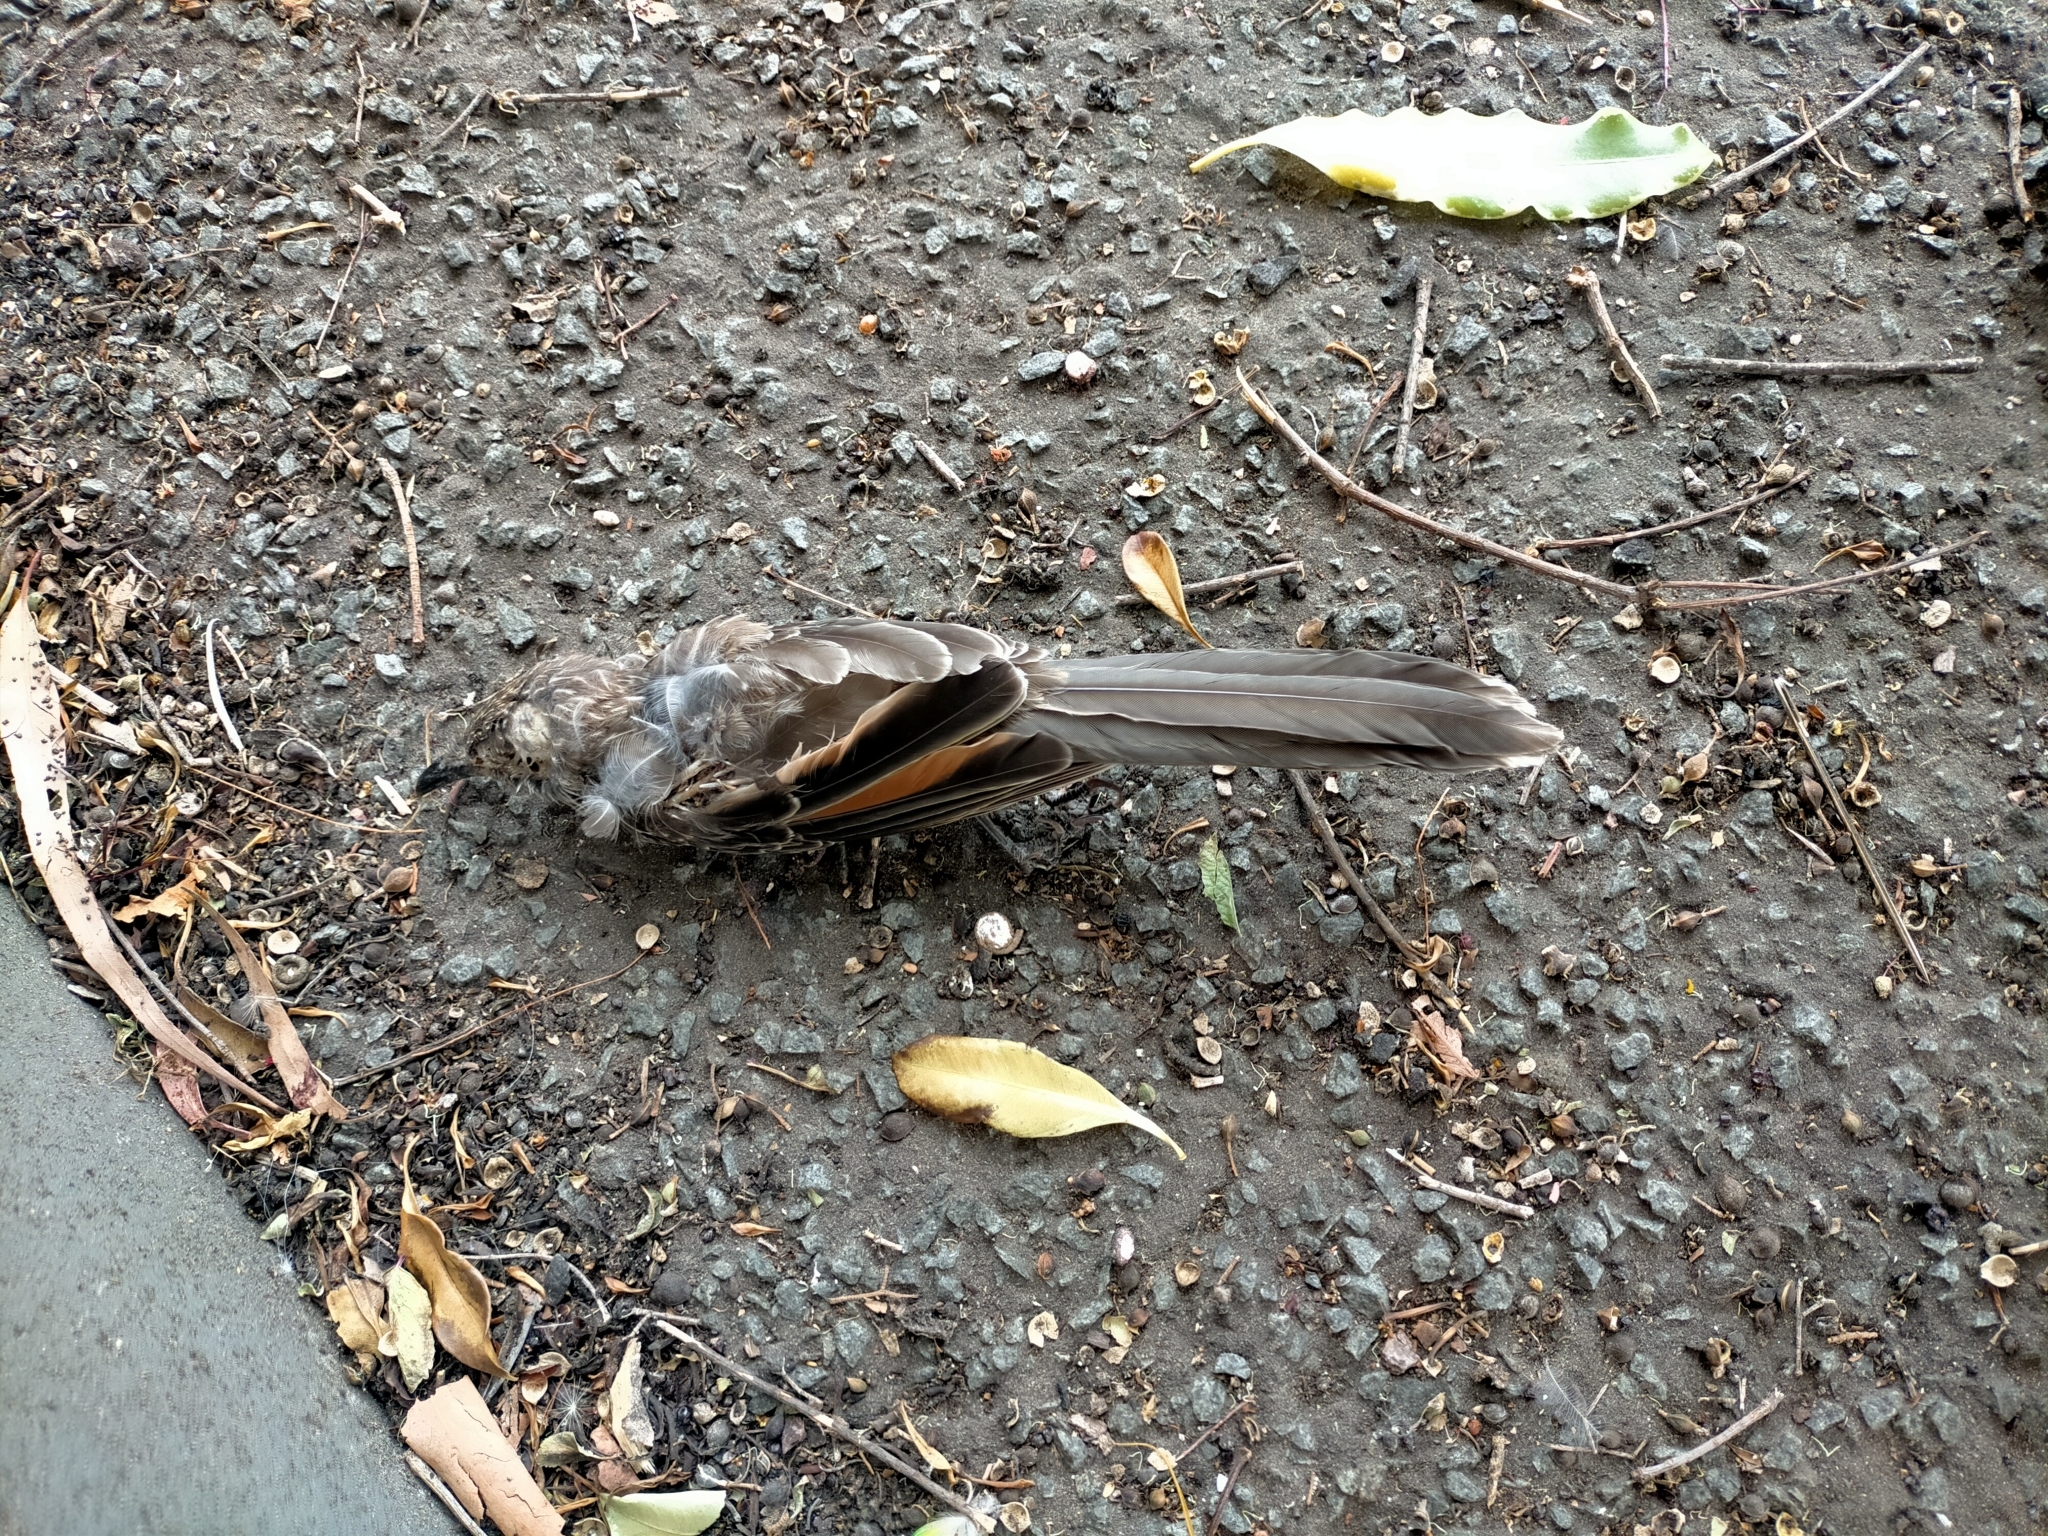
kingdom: Animalia
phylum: Chordata
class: Aves
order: Passeriformes
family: Meliphagidae
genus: Anthochaera
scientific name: Anthochaera chrysoptera
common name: Little wattlebird
